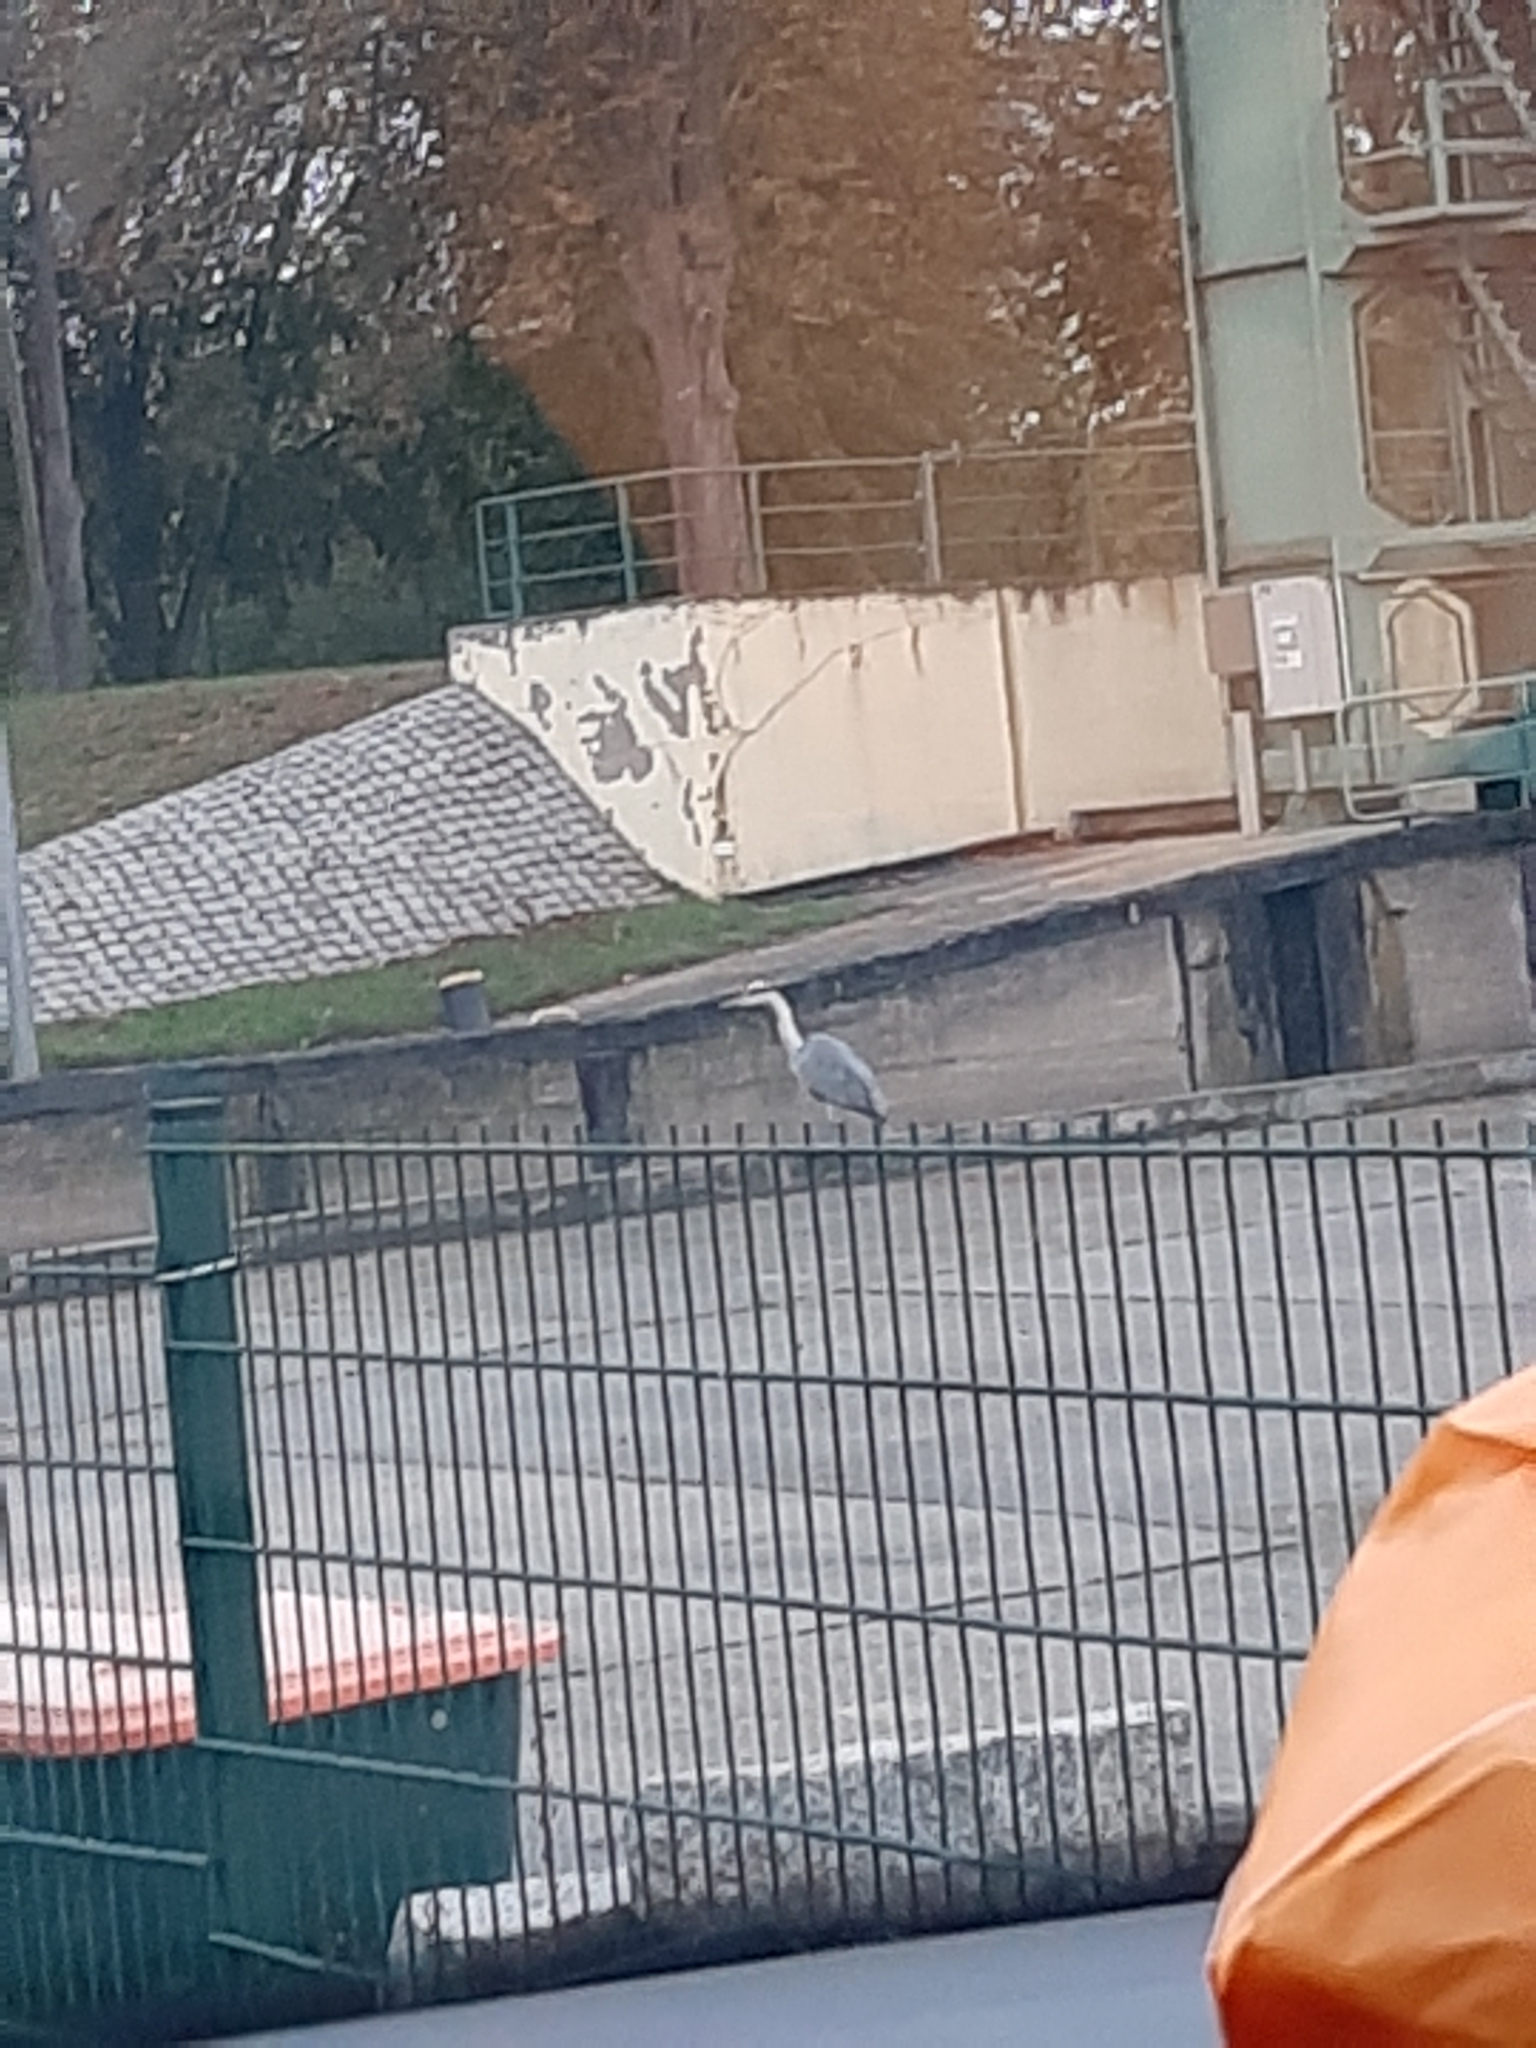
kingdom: Animalia
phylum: Chordata
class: Aves
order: Pelecaniformes
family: Ardeidae
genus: Ardea
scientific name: Ardea cinerea
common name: Grey heron
